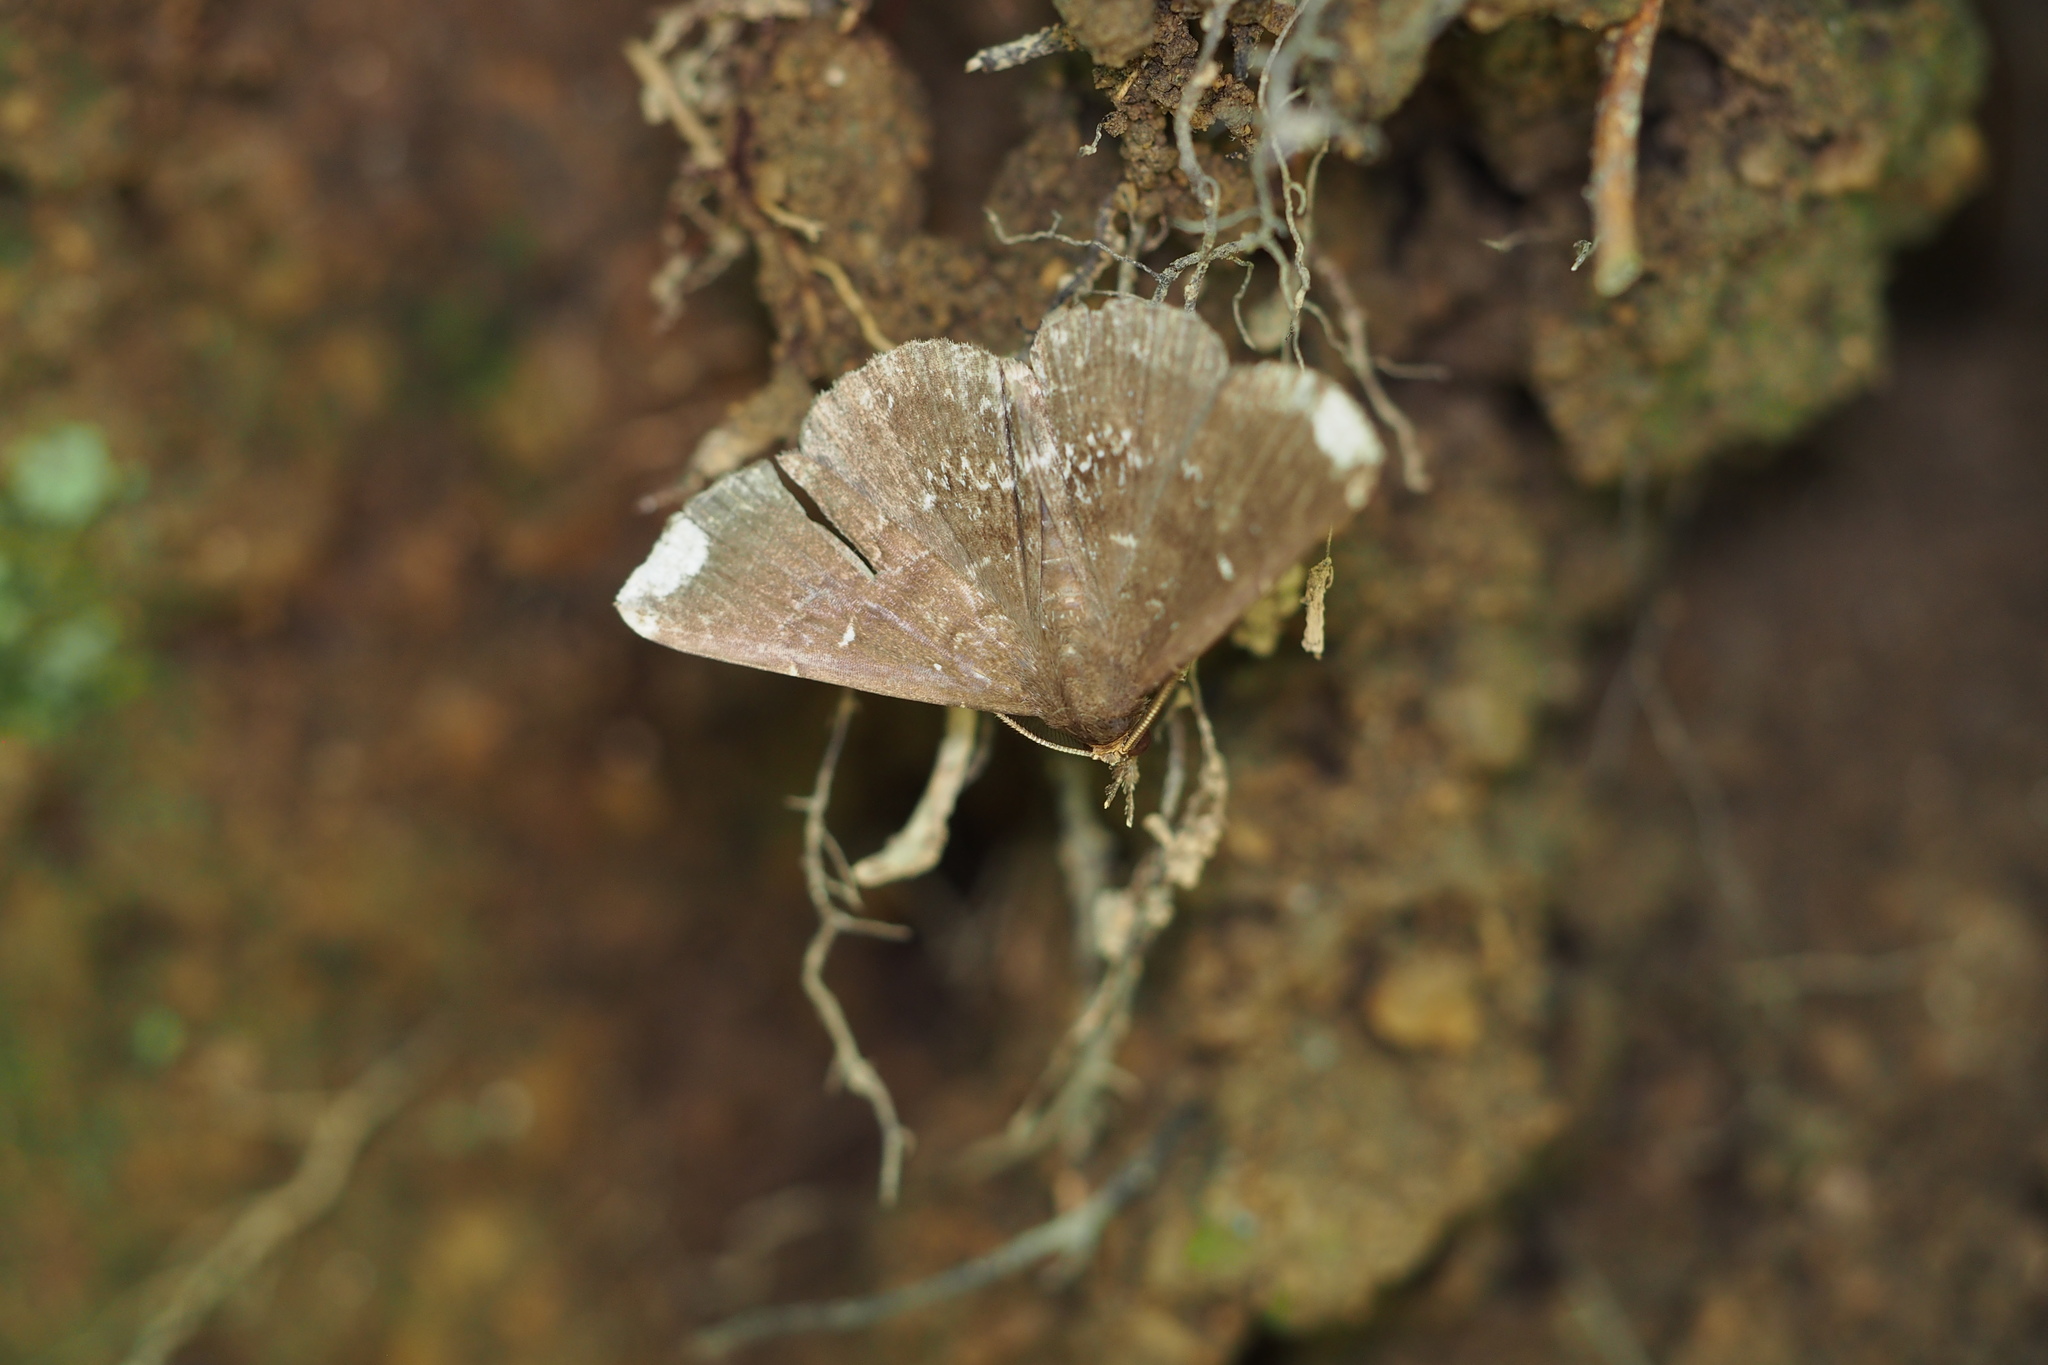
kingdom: Animalia
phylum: Arthropoda
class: Insecta
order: Lepidoptera
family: Erebidae
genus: Adrapsa
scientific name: Adrapsa notigera
